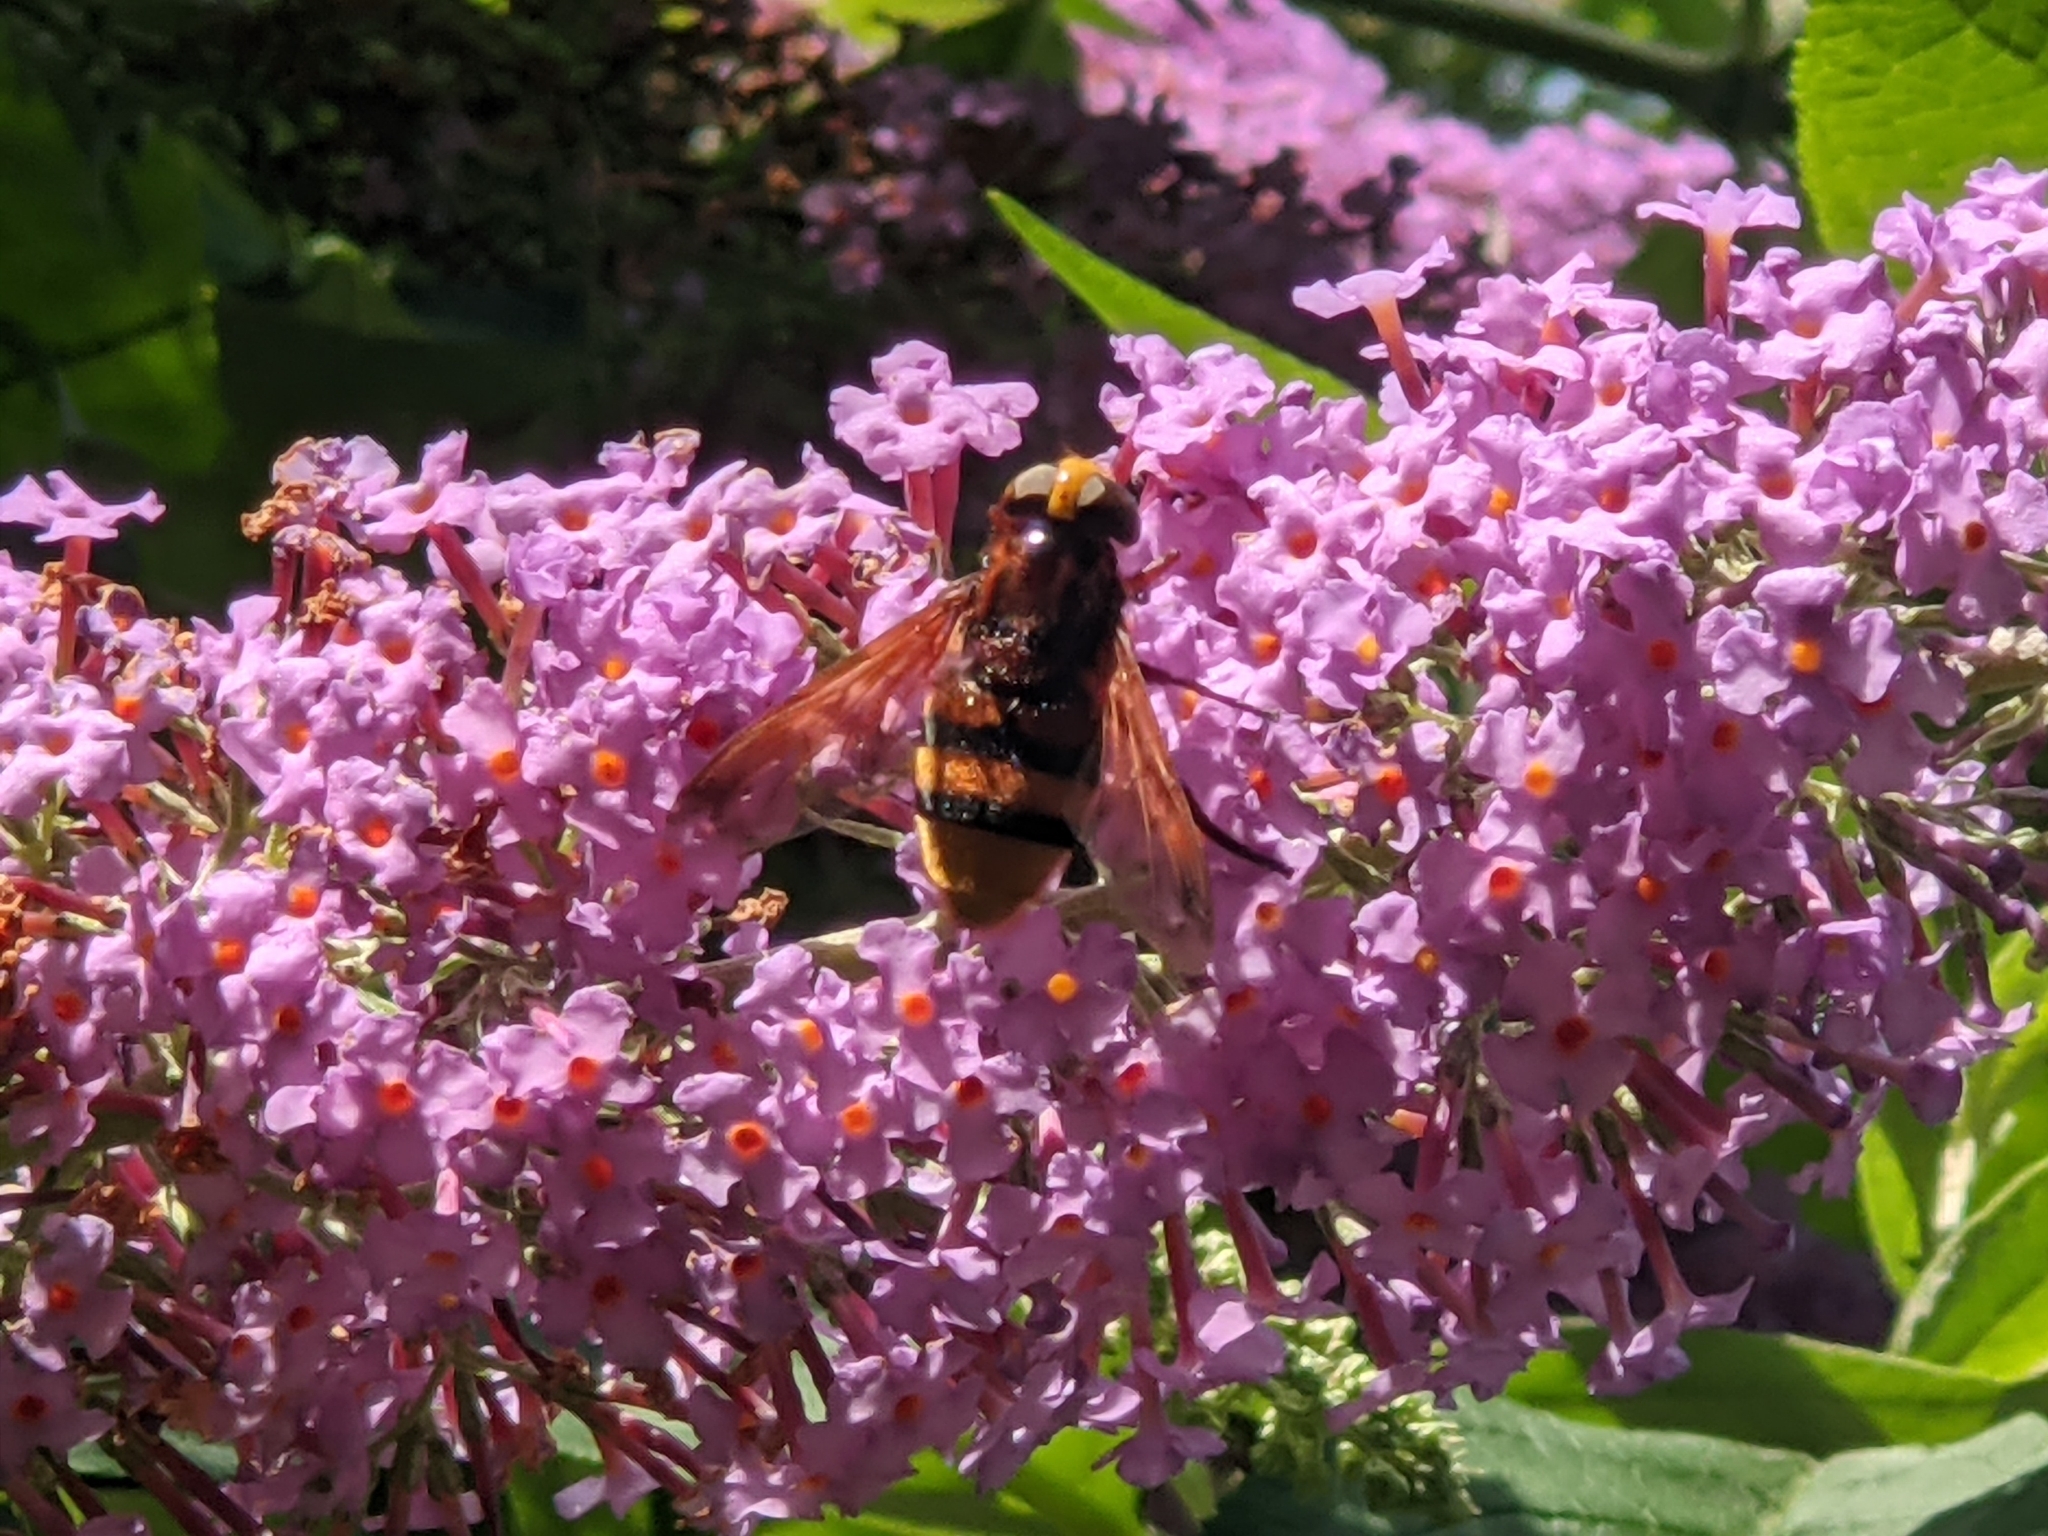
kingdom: Animalia
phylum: Arthropoda
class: Insecta
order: Diptera
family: Syrphidae
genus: Volucella
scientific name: Volucella zonaria
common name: Hornet hoverfly
